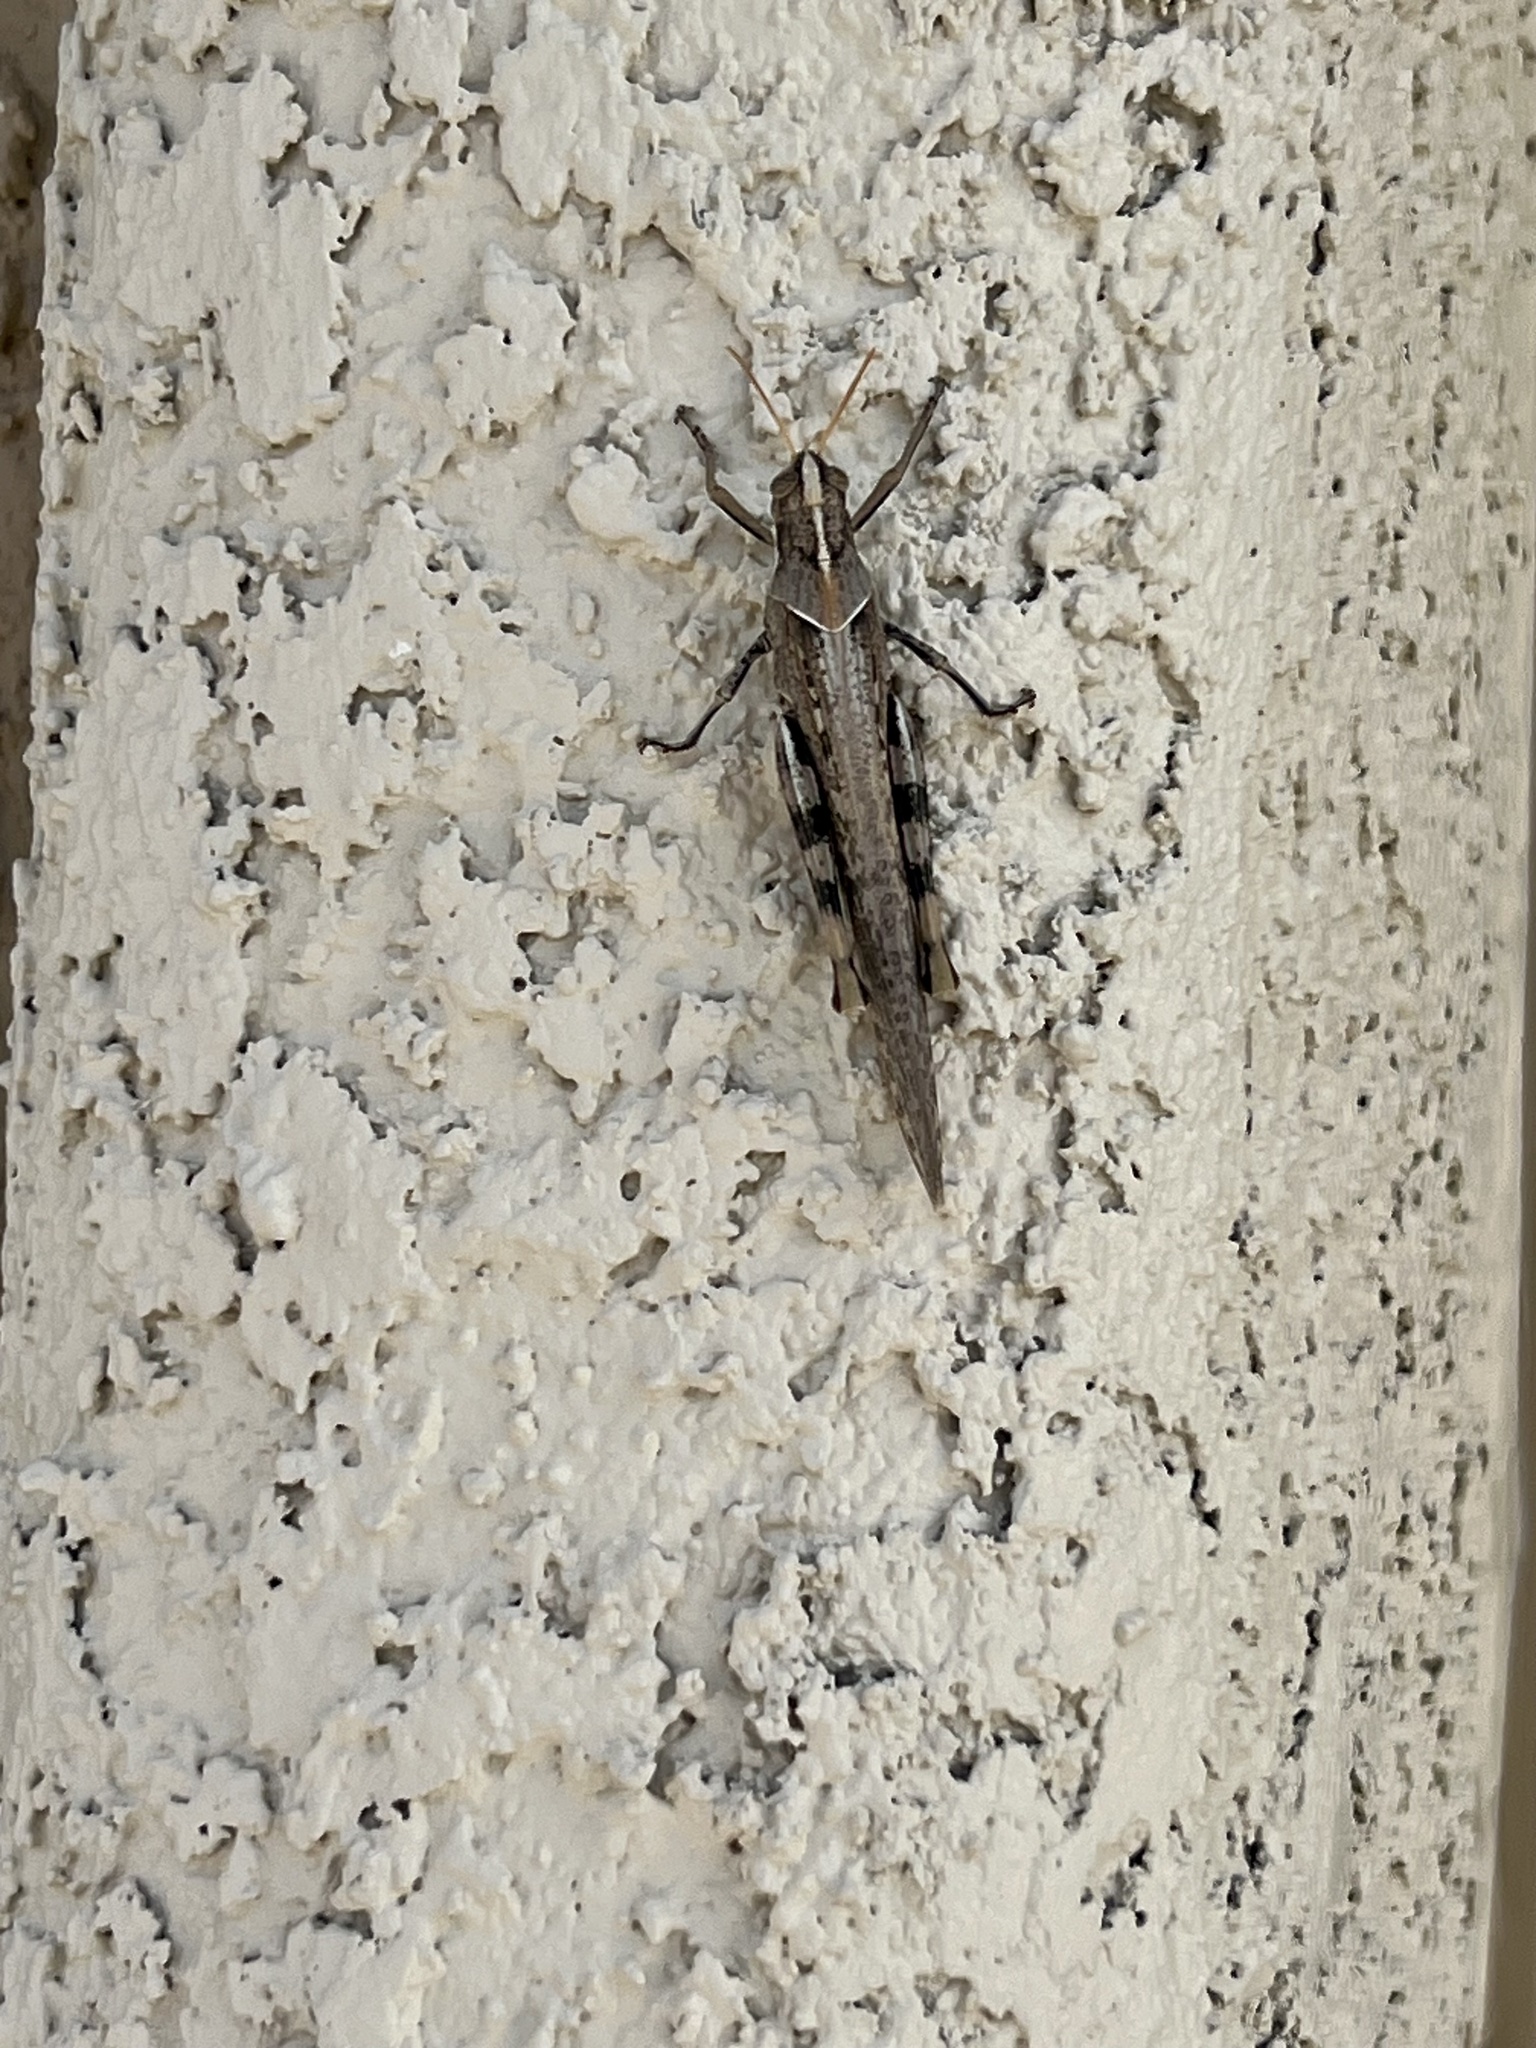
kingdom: Animalia
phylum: Arthropoda
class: Insecta
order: Orthoptera
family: Acrididae
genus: Schistocerca
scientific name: Schistocerca nitens
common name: Vagrant grasshopper
